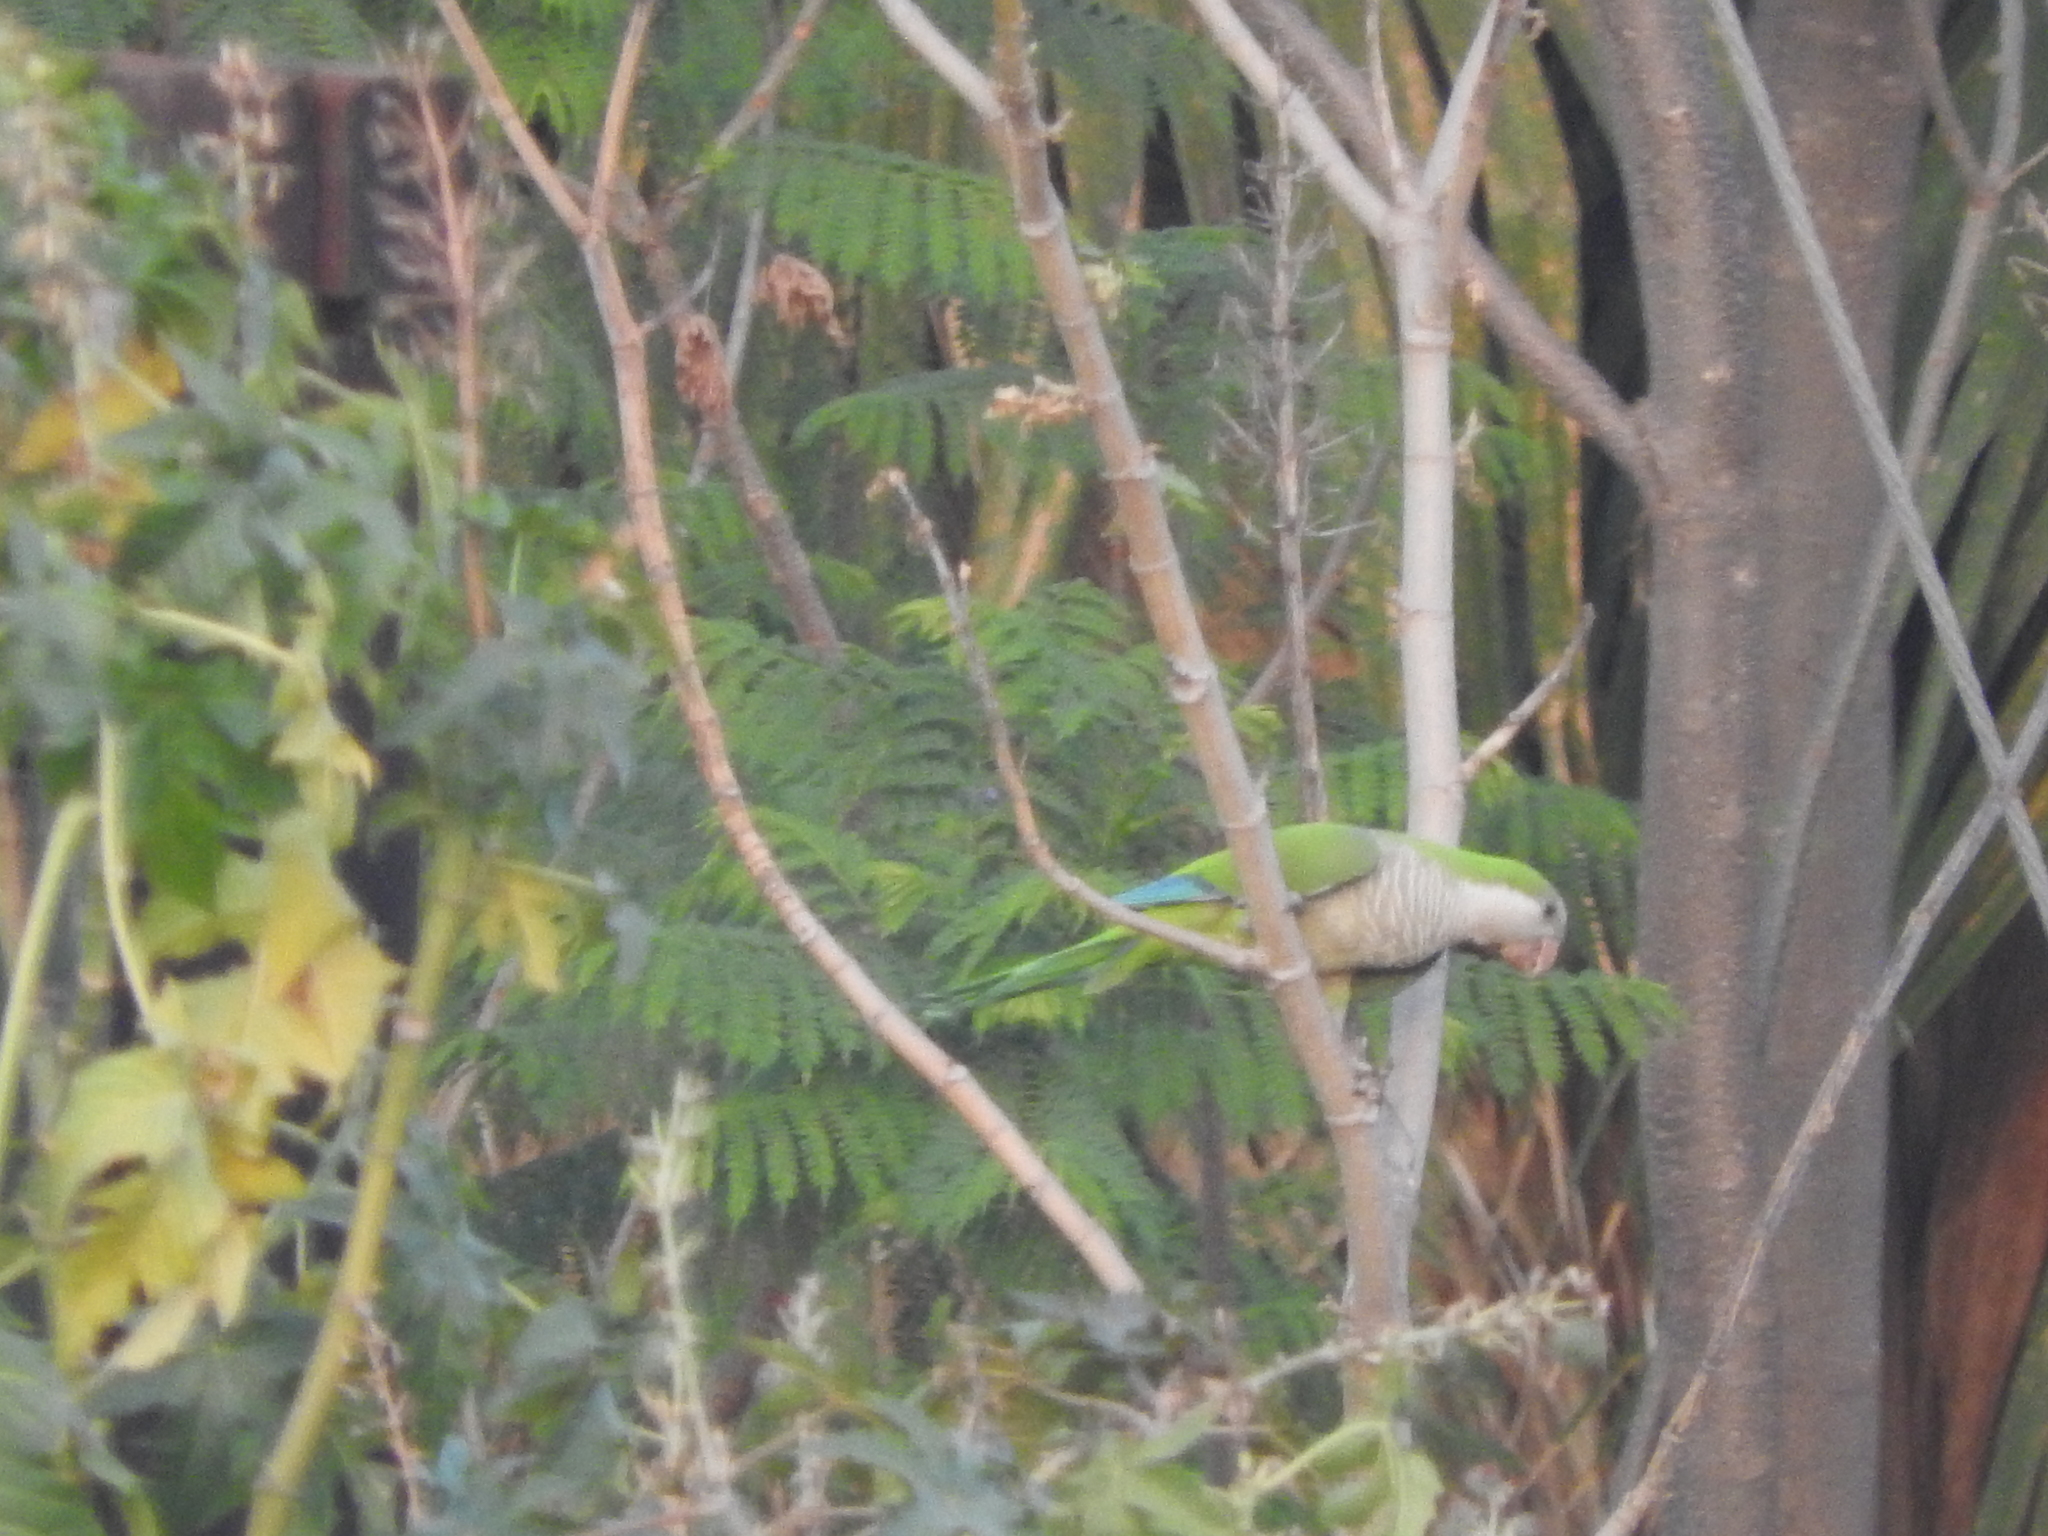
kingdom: Animalia
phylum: Chordata
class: Aves
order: Psittaciformes
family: Psittacidae
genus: Myiopsitta
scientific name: Myiopsitta monachus
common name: Monk parakeet
